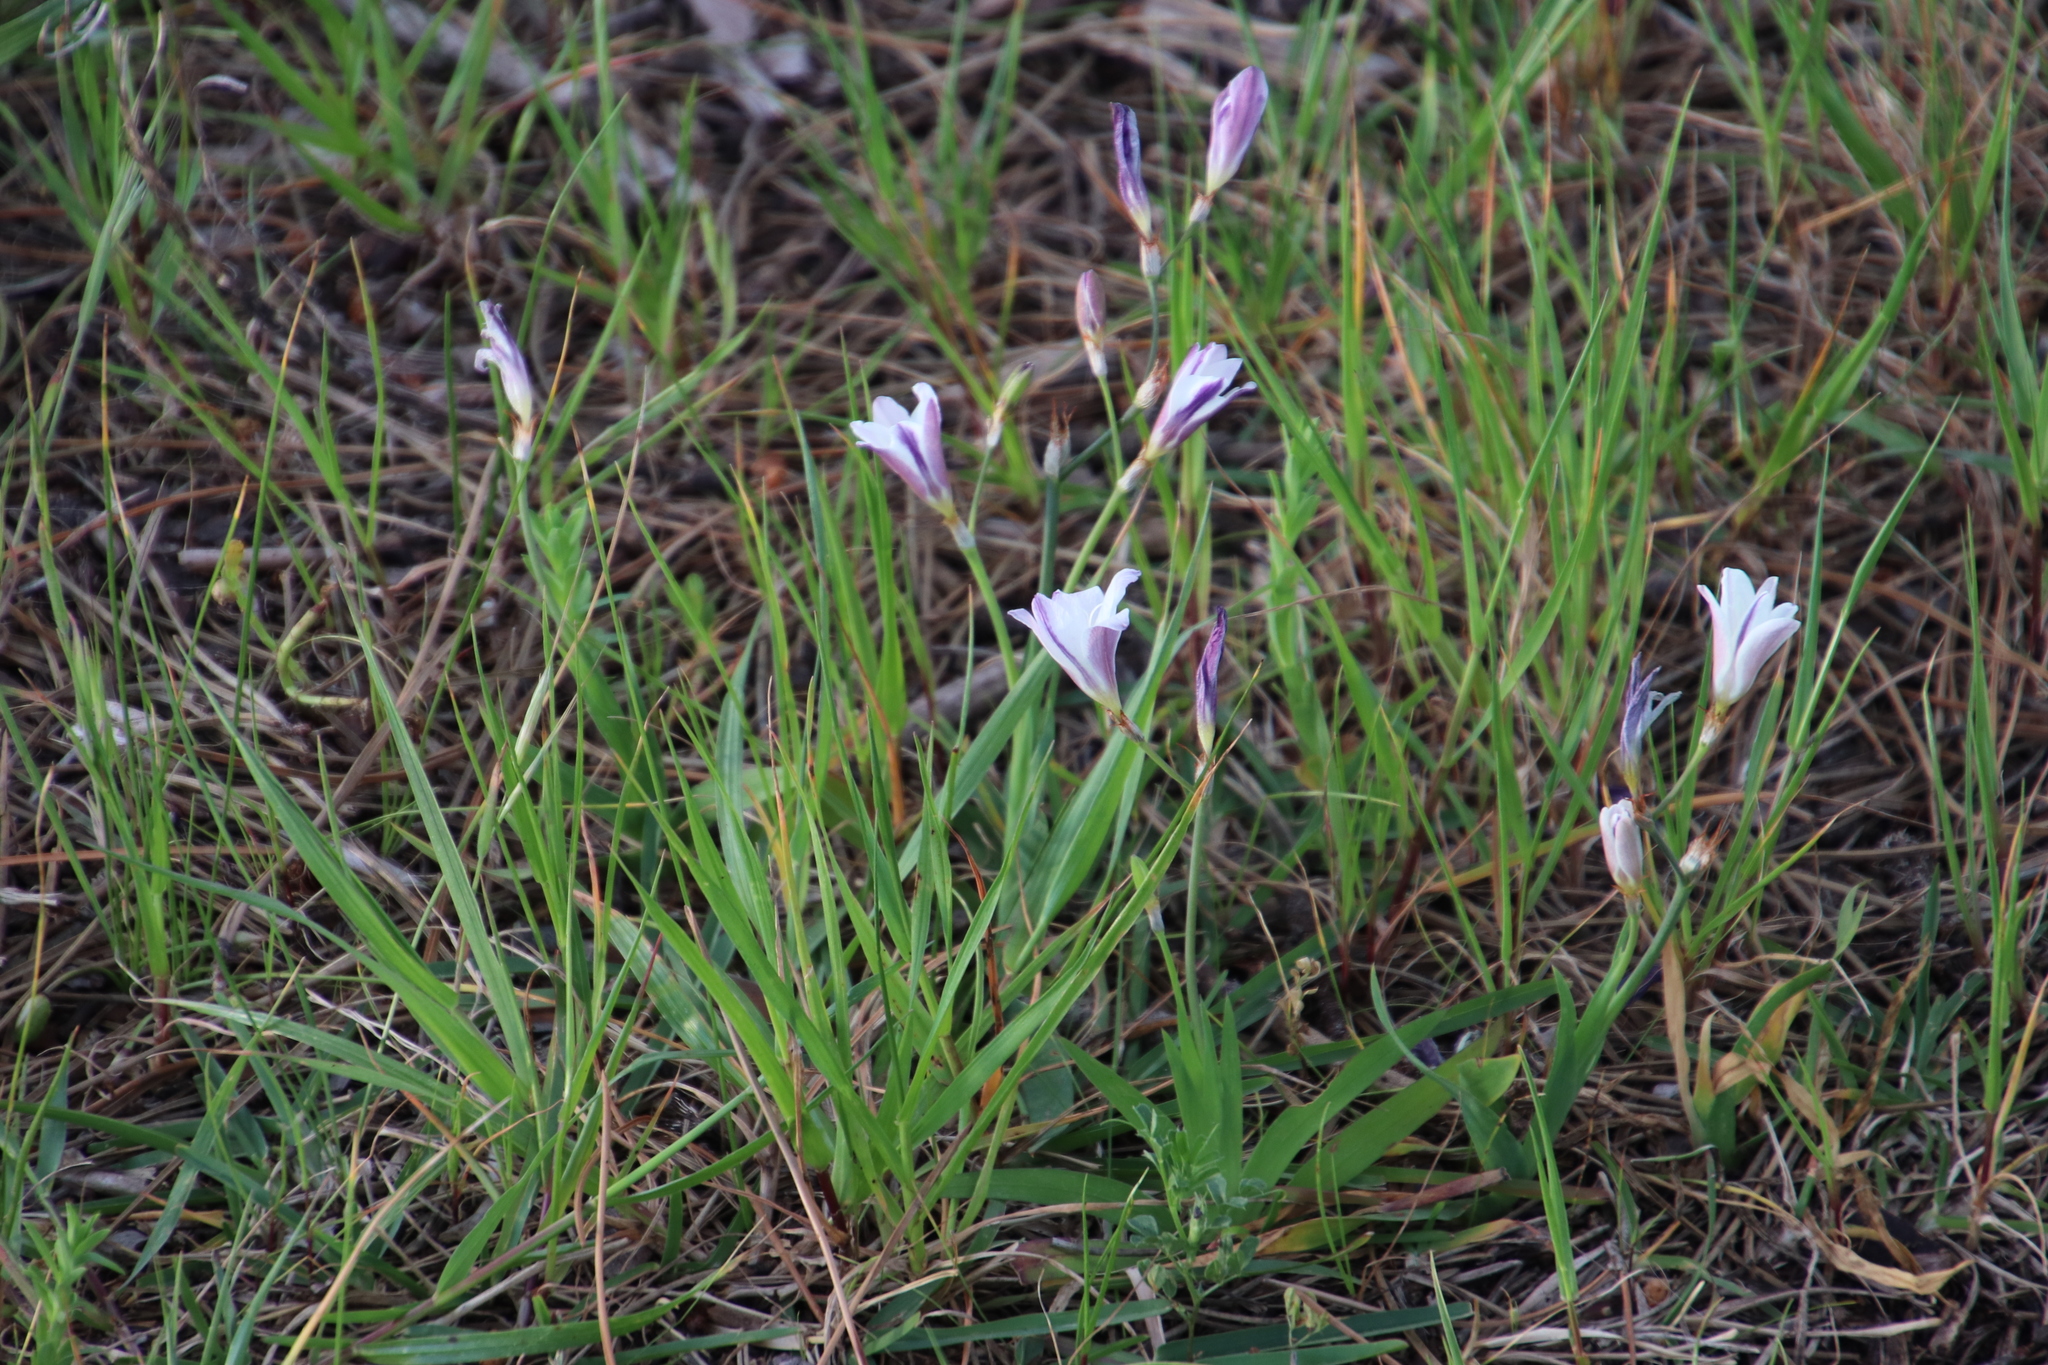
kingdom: Plantae
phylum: Tracheophyta
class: Liliopsida
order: Asparagales
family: Iridaceae
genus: Sparaxis
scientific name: Sparaxis bulbifera
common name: Harlequin-flower
